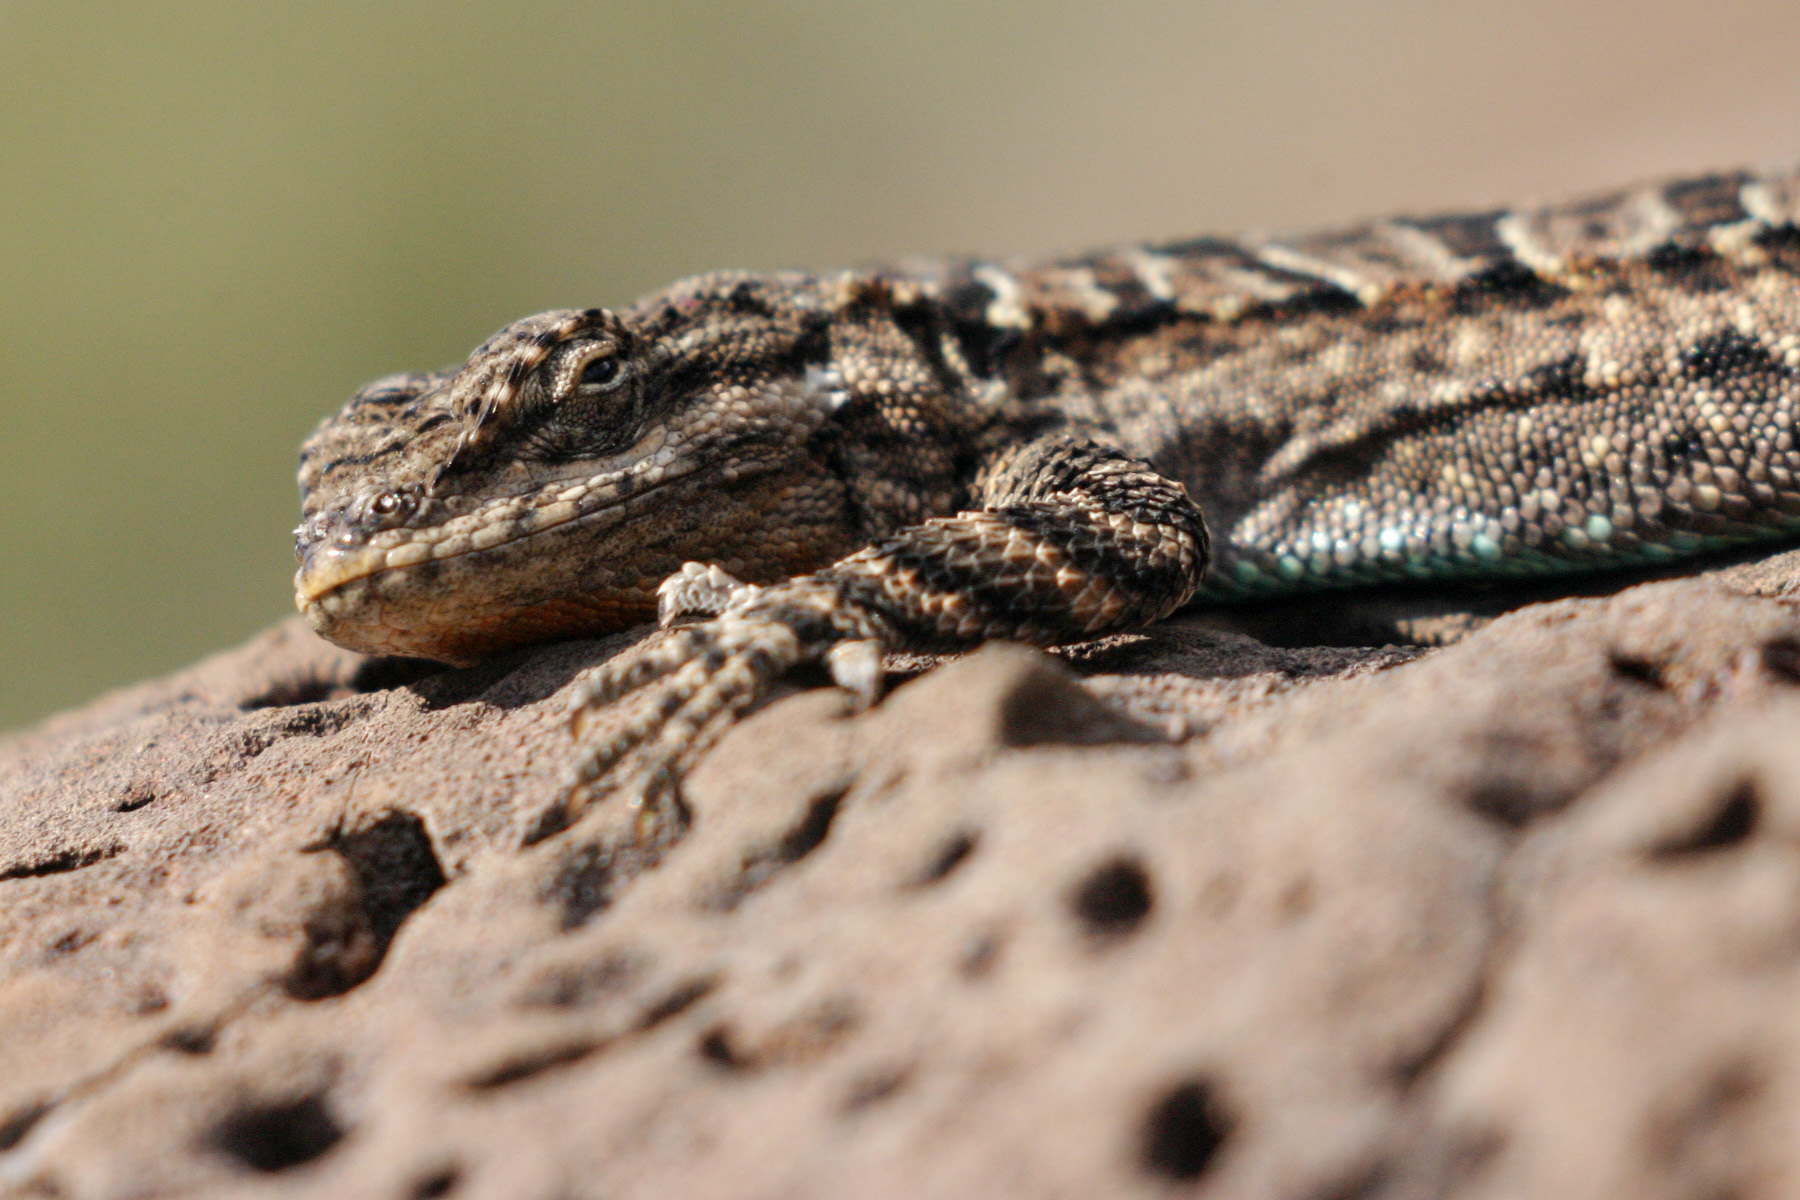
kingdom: Animalia
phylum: Chordata
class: Squamata
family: Phrynosomatidae
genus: Urosaurus
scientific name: Urosaurus ornatus
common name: Ornate tree lizard
